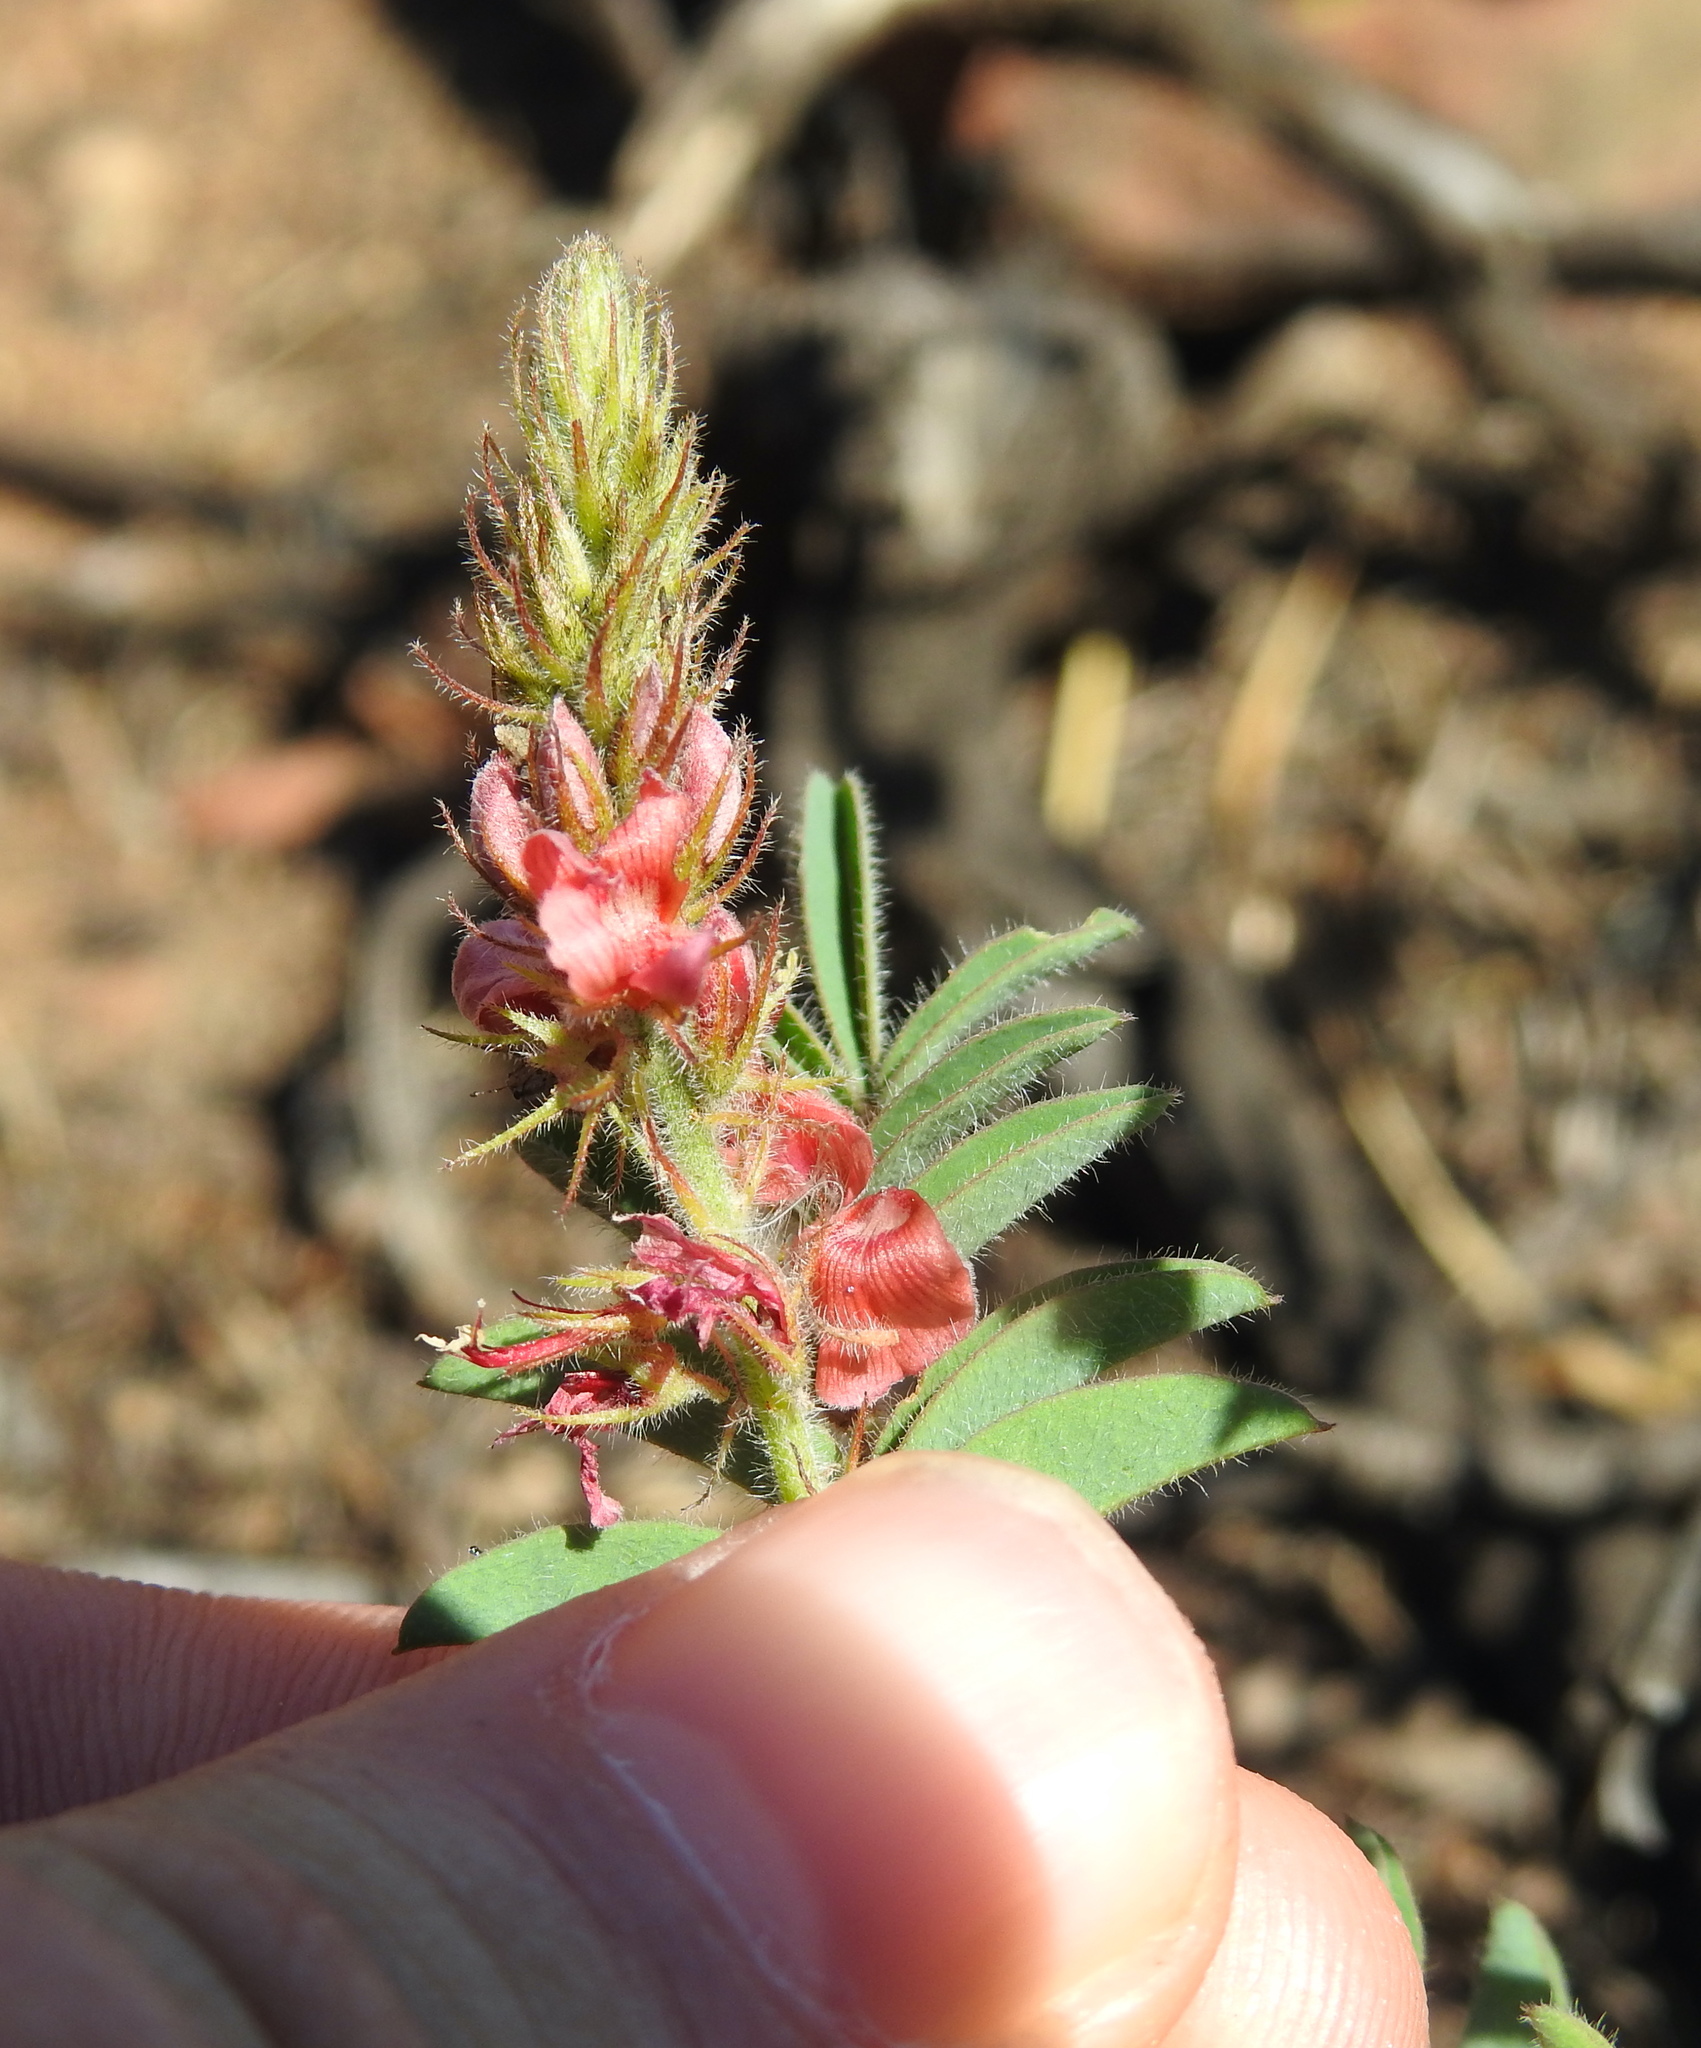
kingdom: Plantae
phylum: Tracheophyta
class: Magnoliopsida
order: Fabales
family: Fabaceae
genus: Indigofera
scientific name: Indigofera comosa
